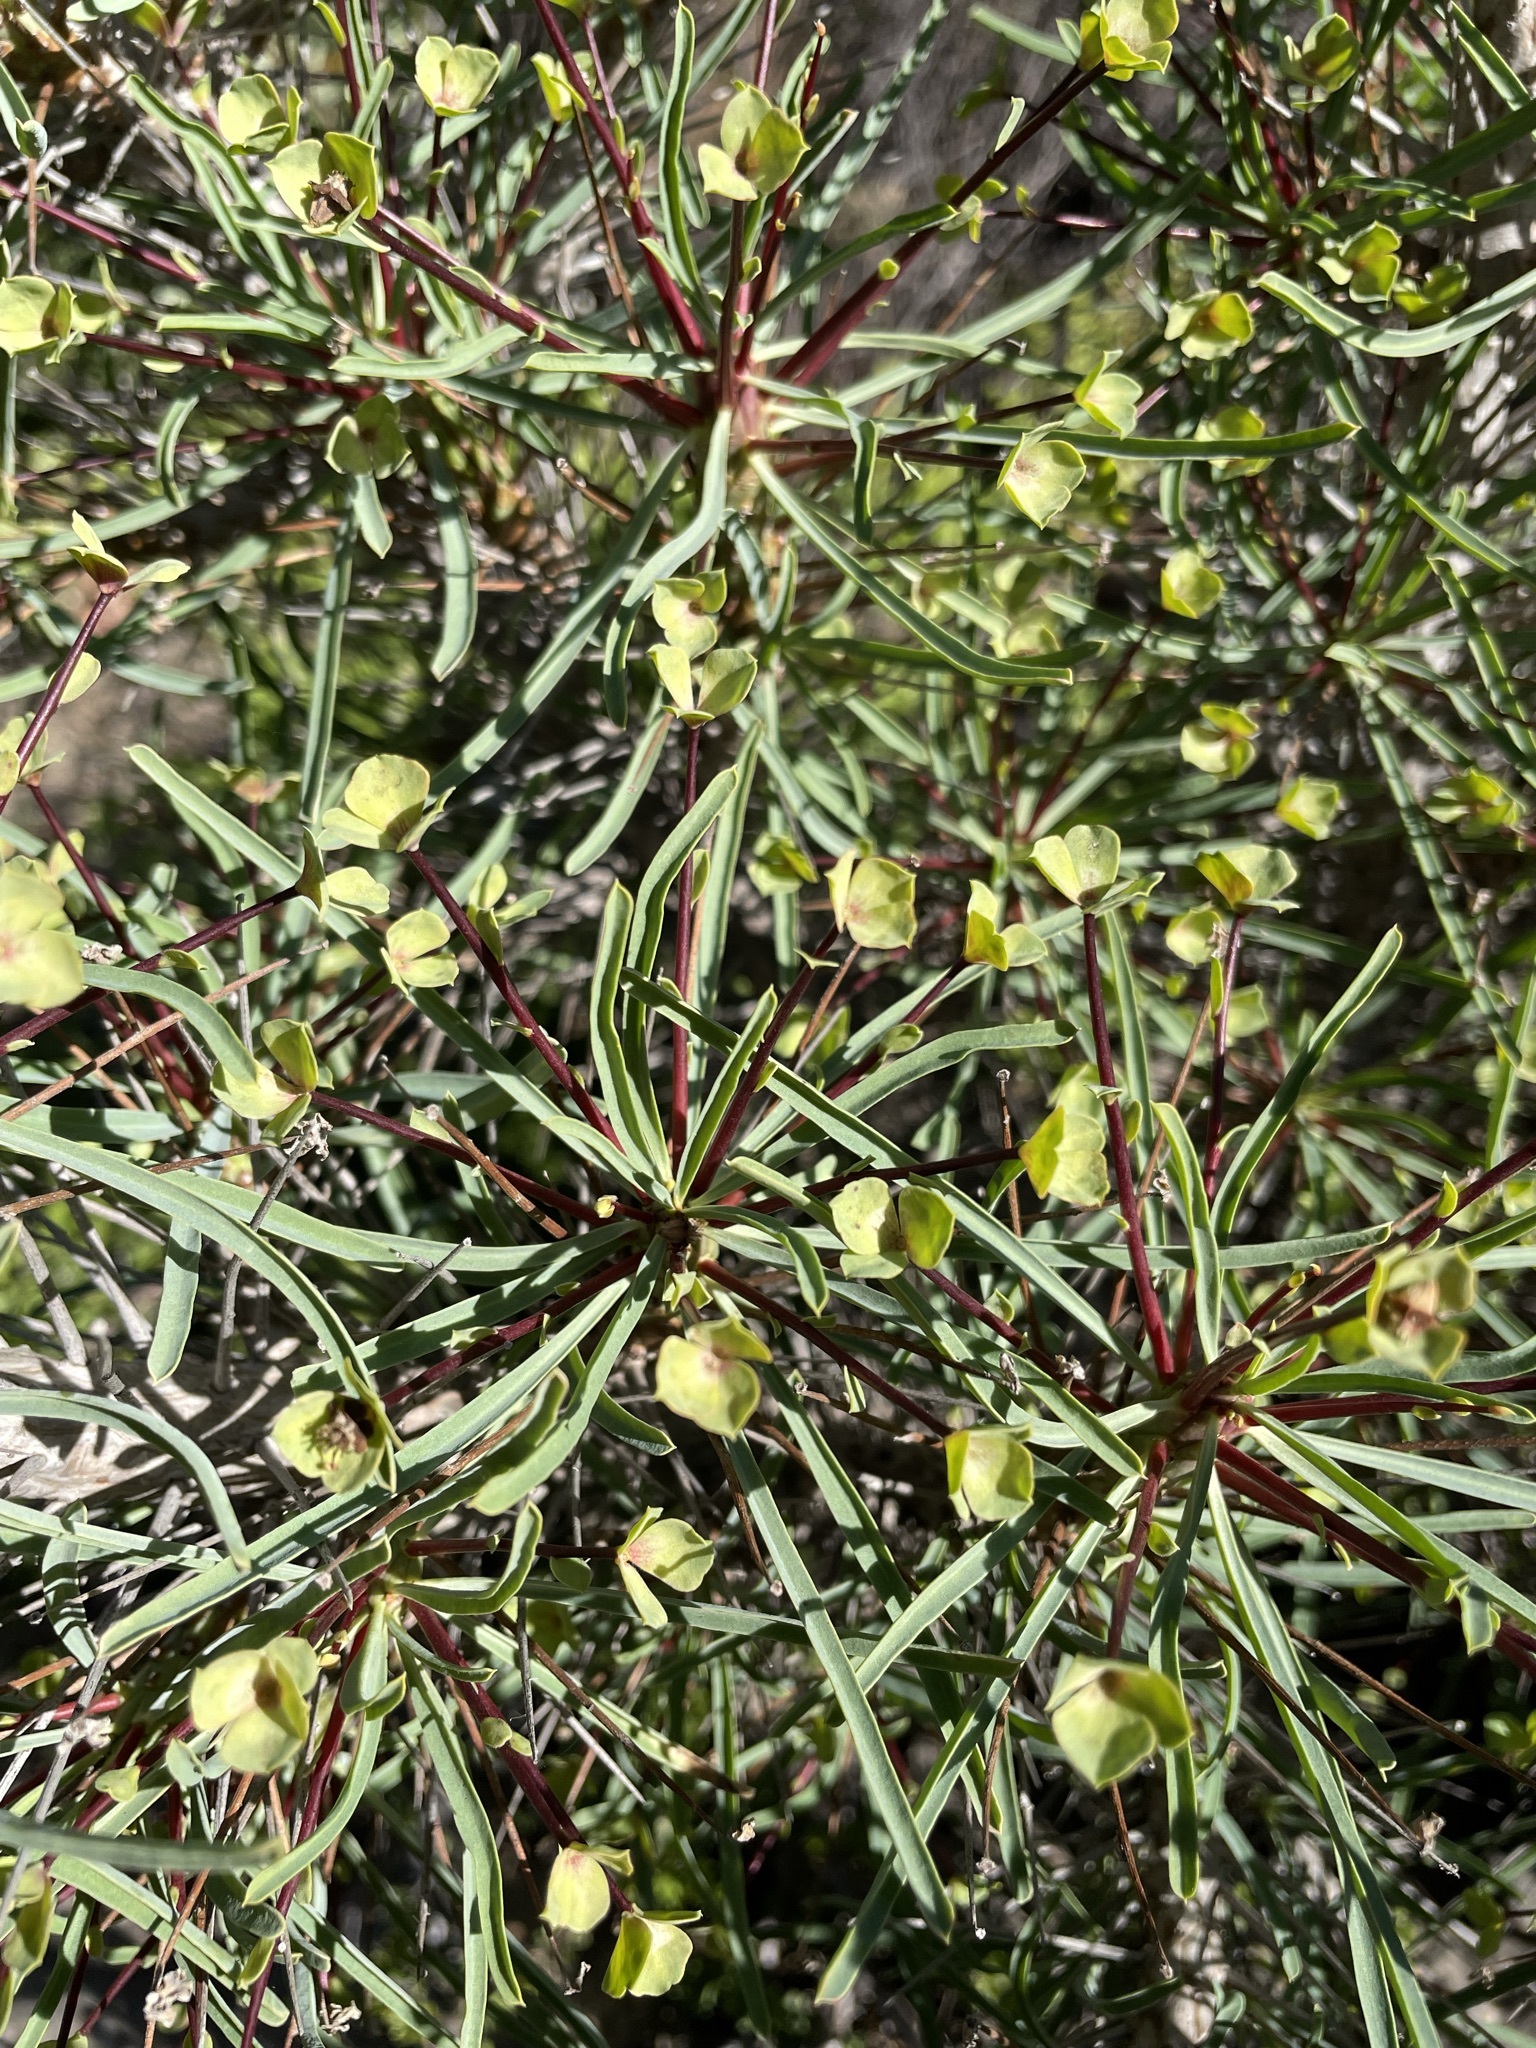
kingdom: Plantae
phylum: Tracheophyta
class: Magnoliopsida
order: Malpighiales
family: Euphorbiaceae
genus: Euphorbia
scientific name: Euphorbia loricata
